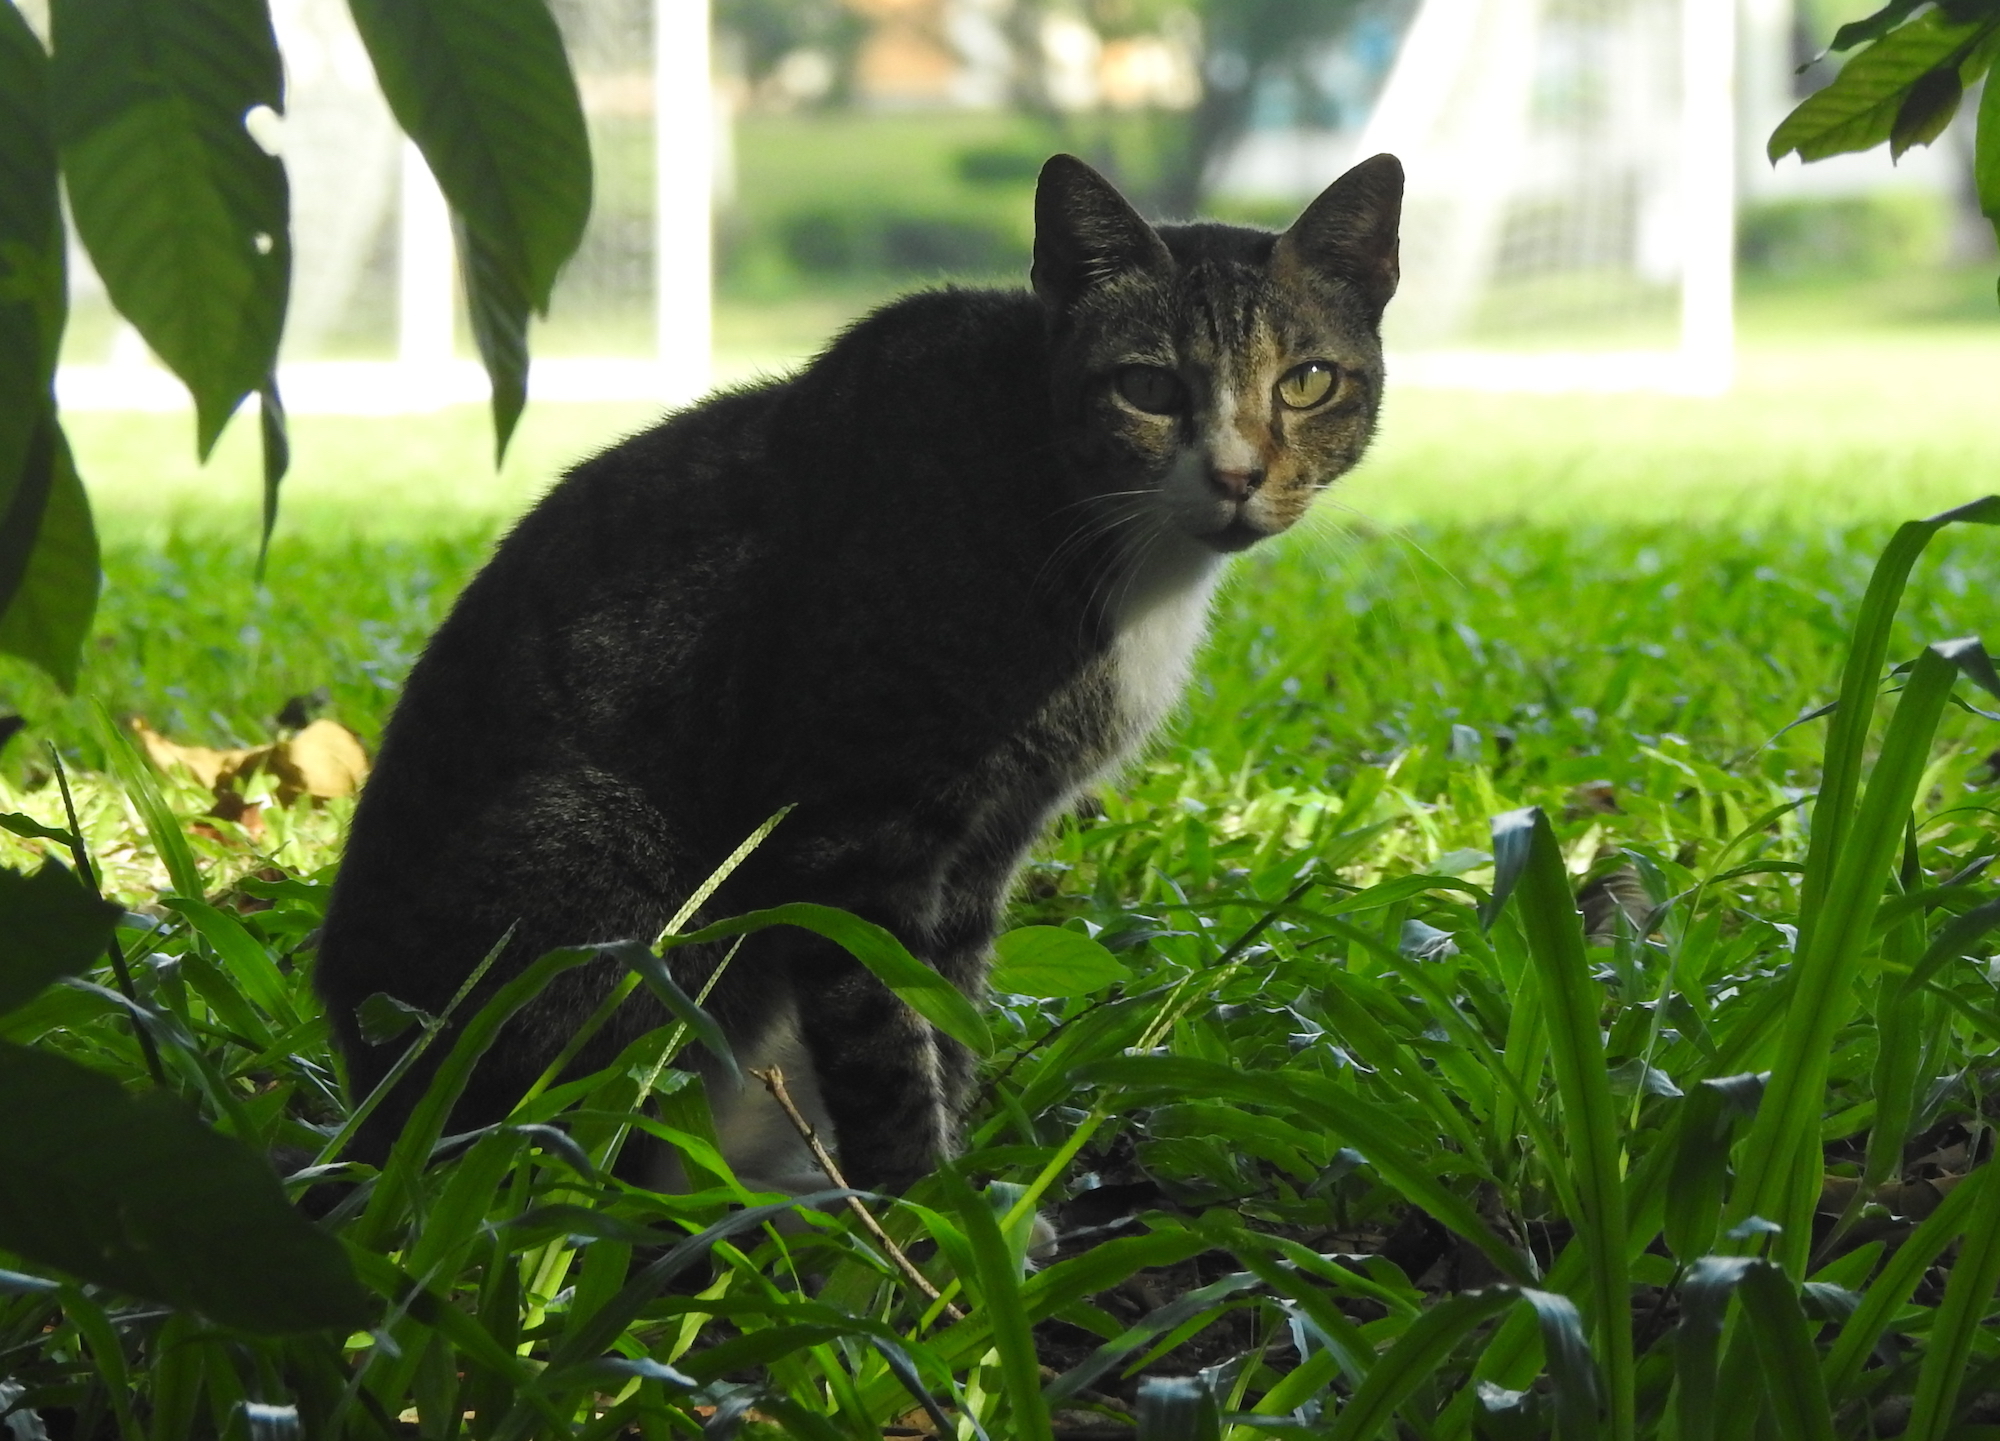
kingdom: Animalia
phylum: Chordata
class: Mammalia
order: Carnivora
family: Felidae
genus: Felis
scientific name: Felis catus
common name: Domestic cat
